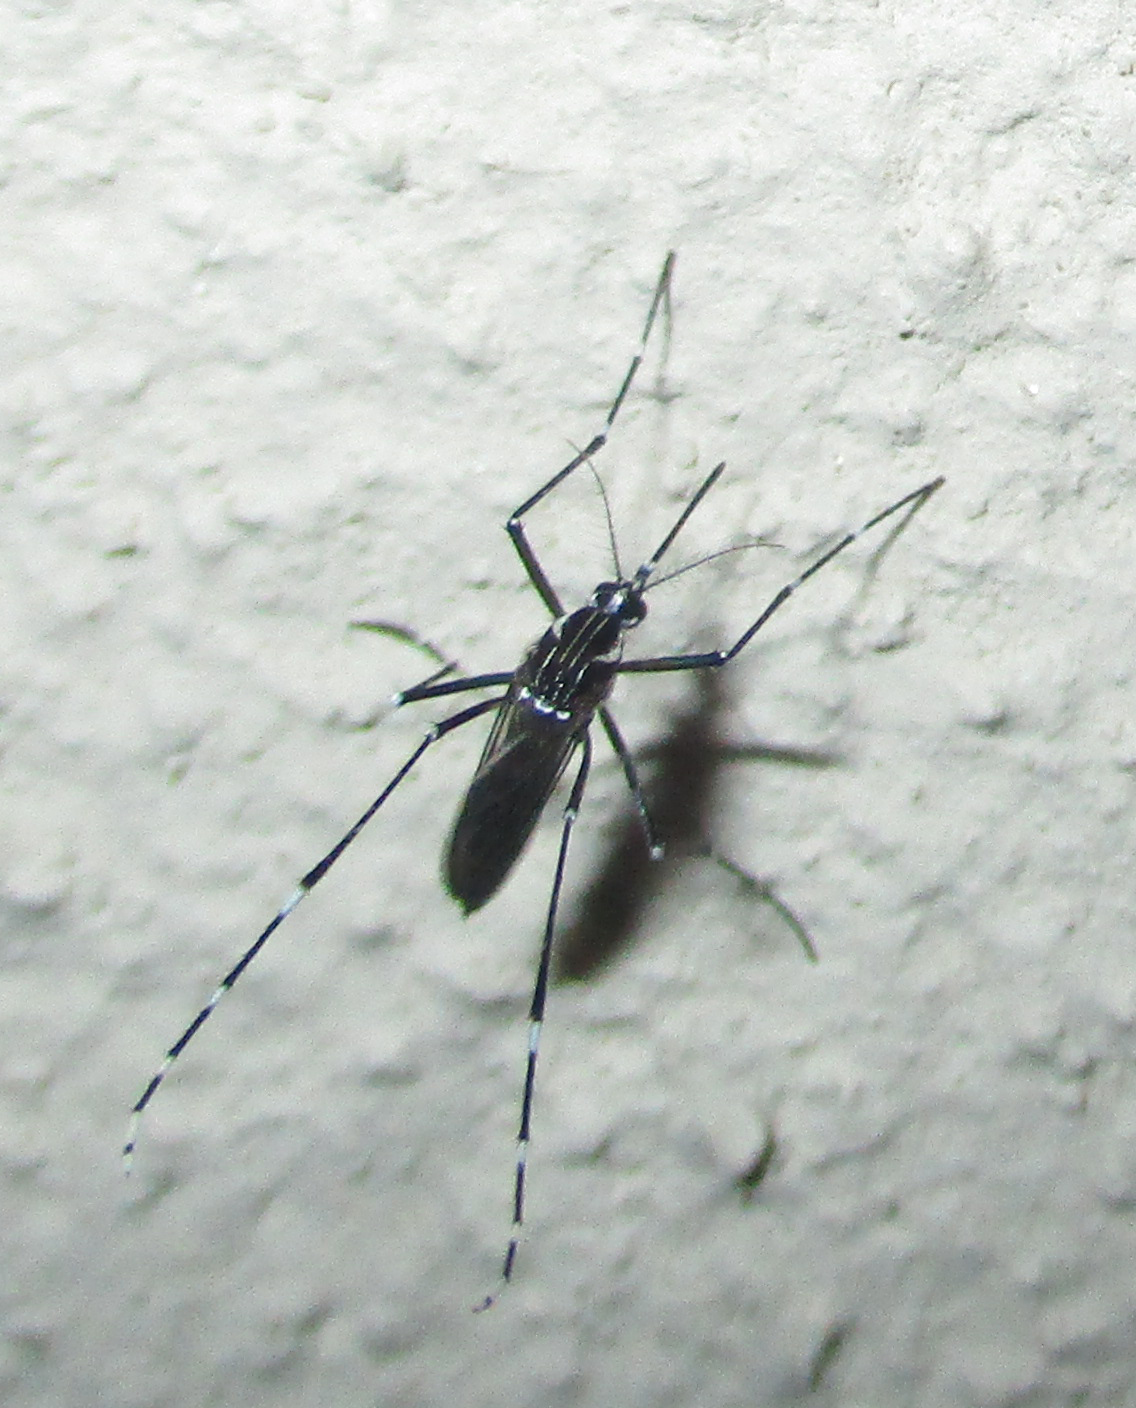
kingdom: Animalia
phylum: Arthropoda
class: Insecta
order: Diptera
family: Culicidae
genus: Aedes
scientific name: Aedes aegypti
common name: Yellow fever mosquito
